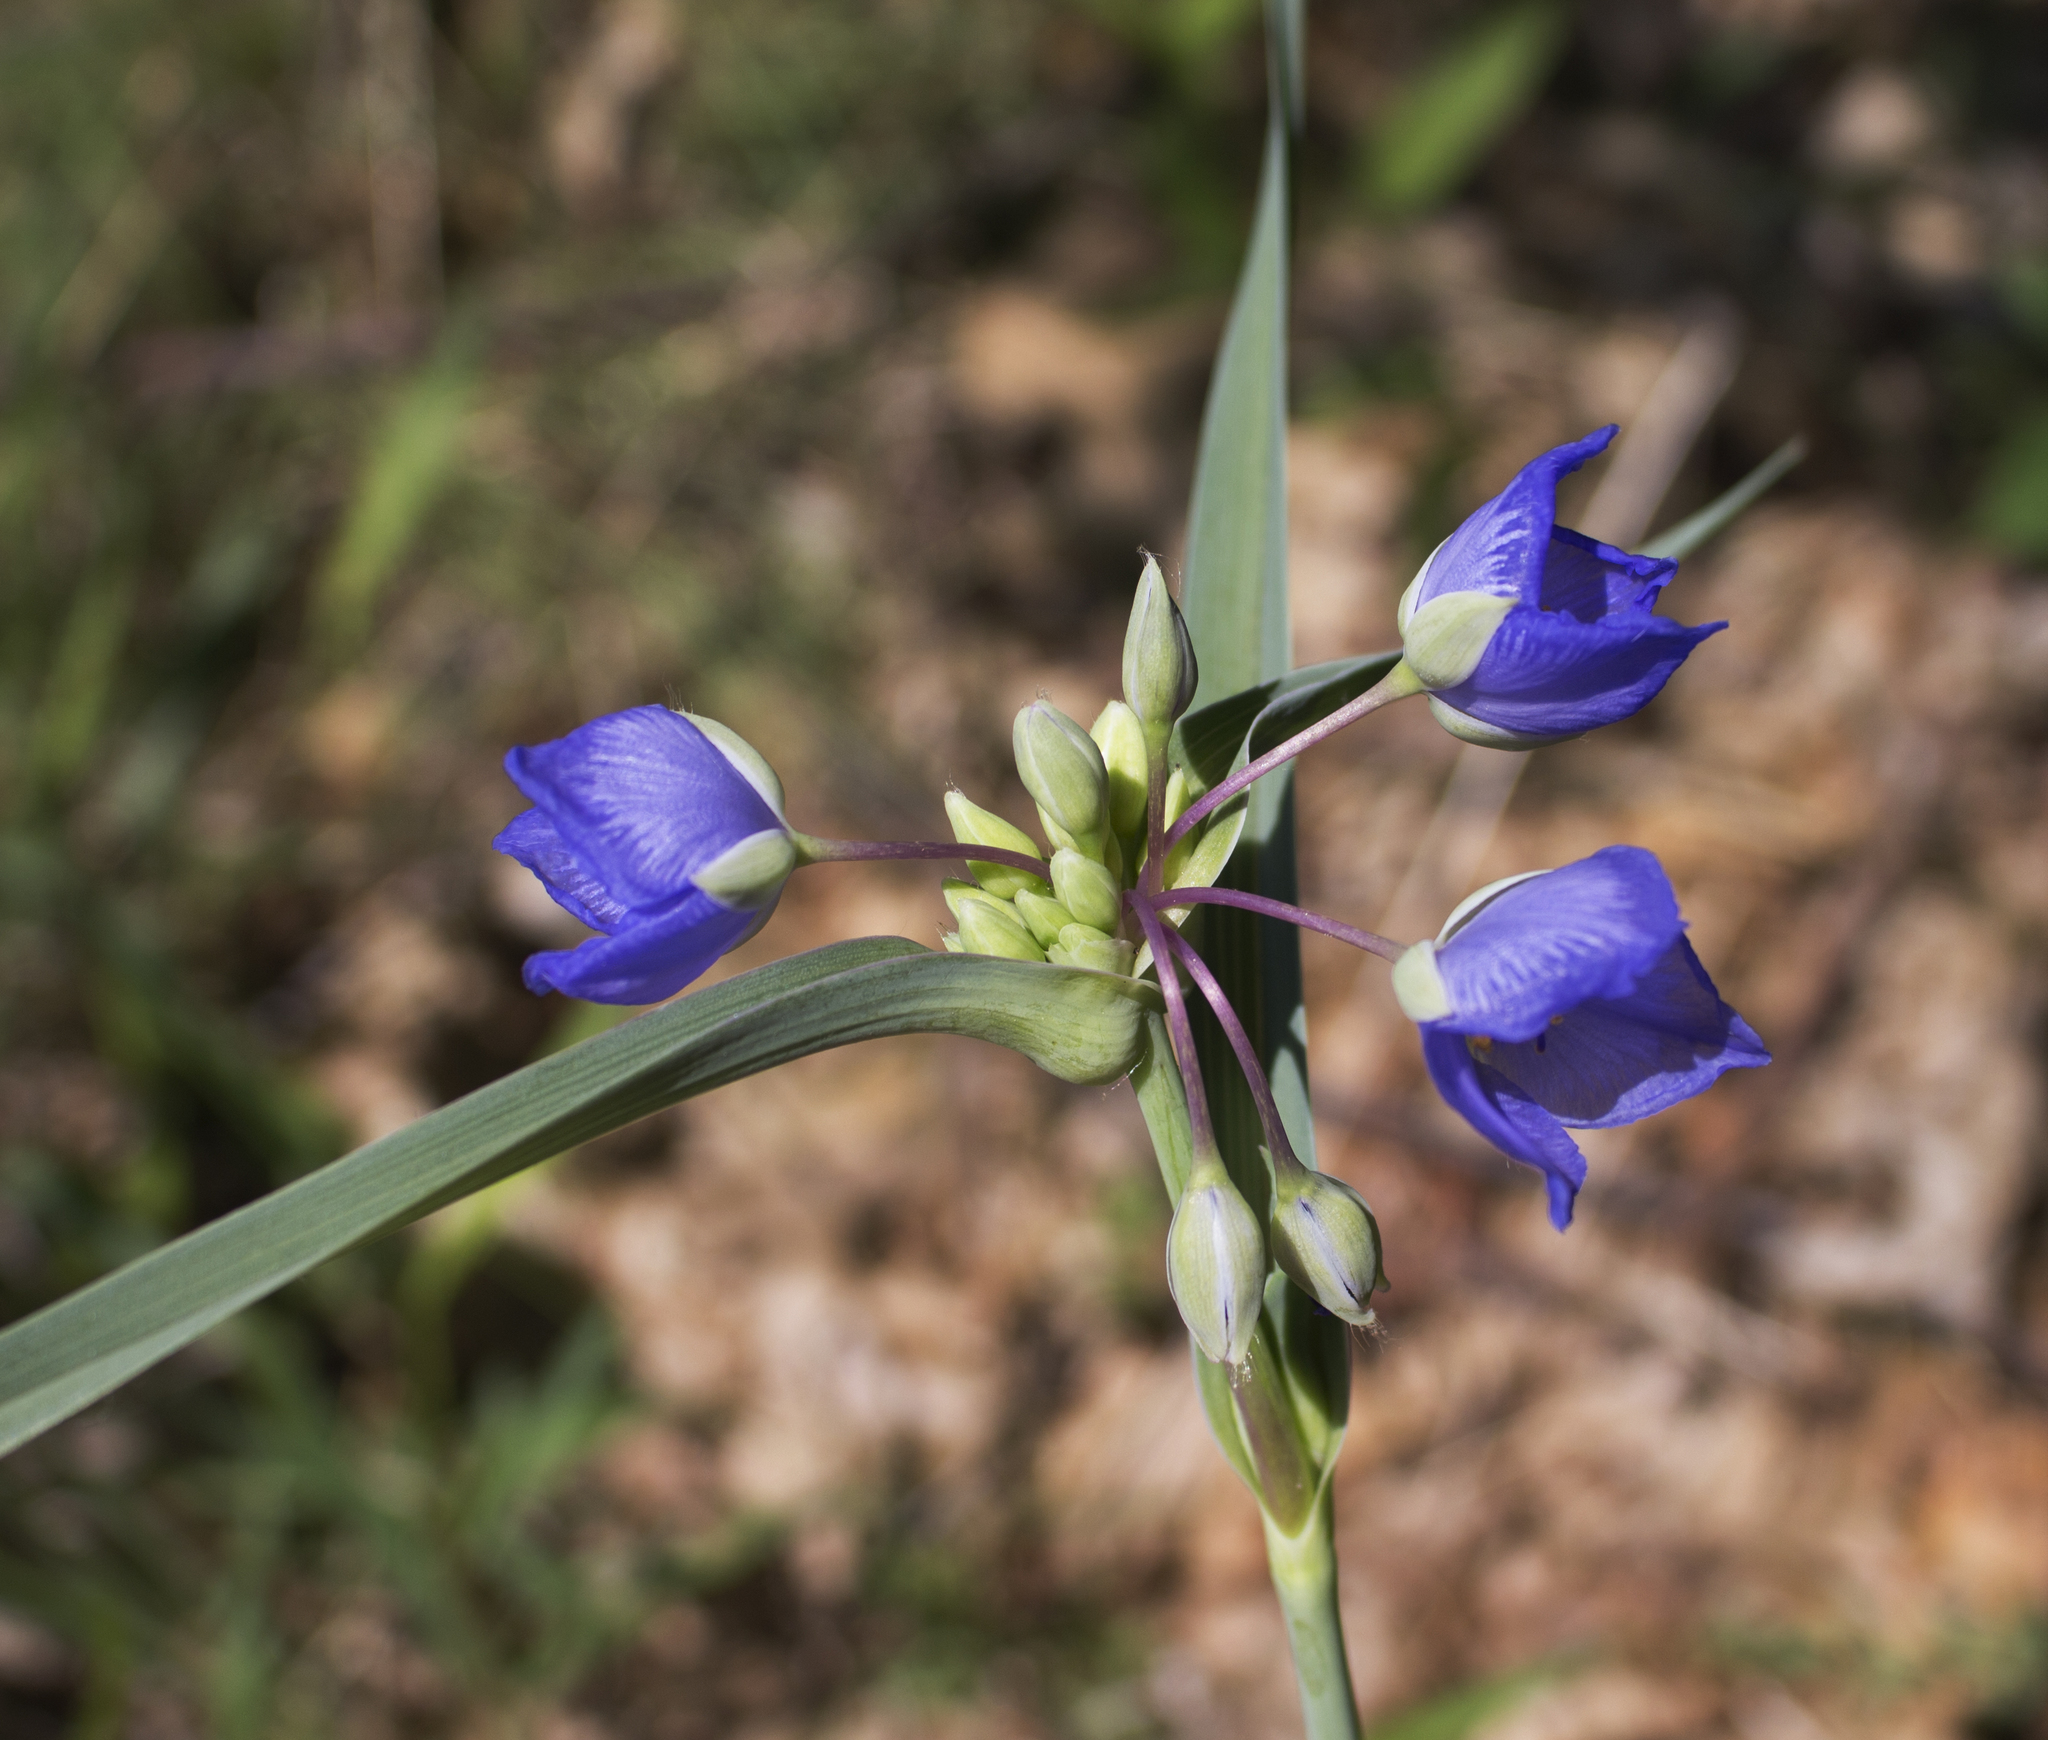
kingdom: Plantae
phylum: Tracheophyta
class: Liliopsida
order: Commelinales
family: Commelinaceae
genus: Tradescantia
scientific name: Tradescantia ohiensis
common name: Ohio spiderwort
